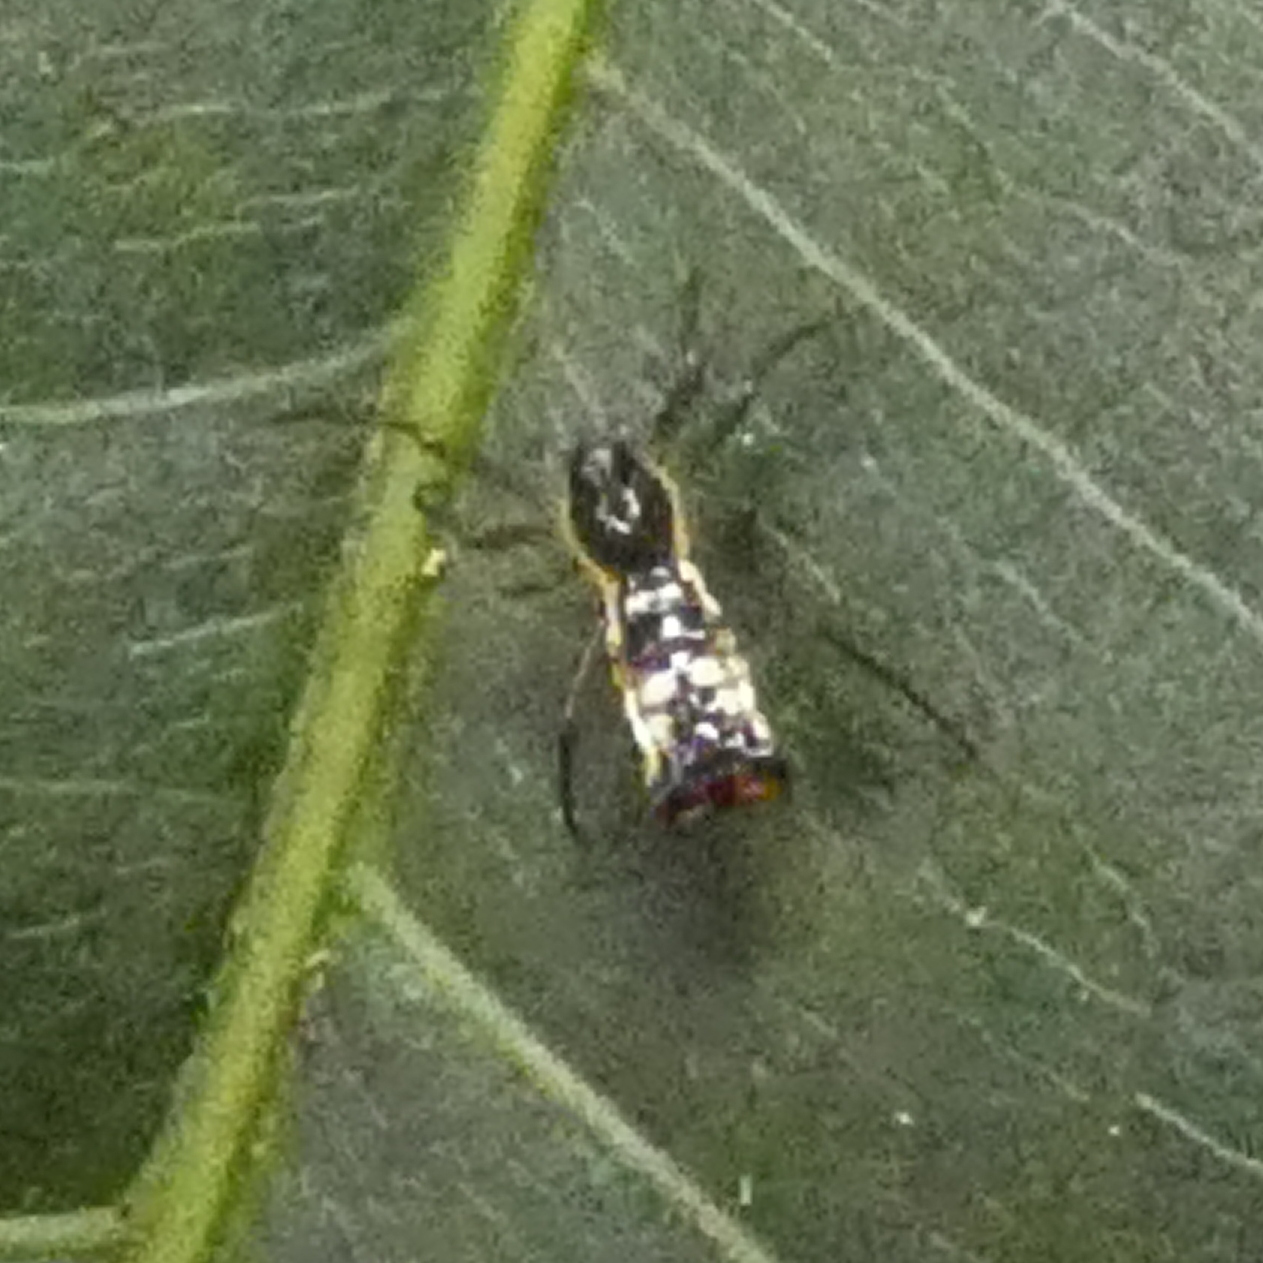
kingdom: Animalia
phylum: Arthropoda
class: Arachnida
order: Araneae
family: Araneidae
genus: Micrathena
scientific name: Micrathena fissispina
